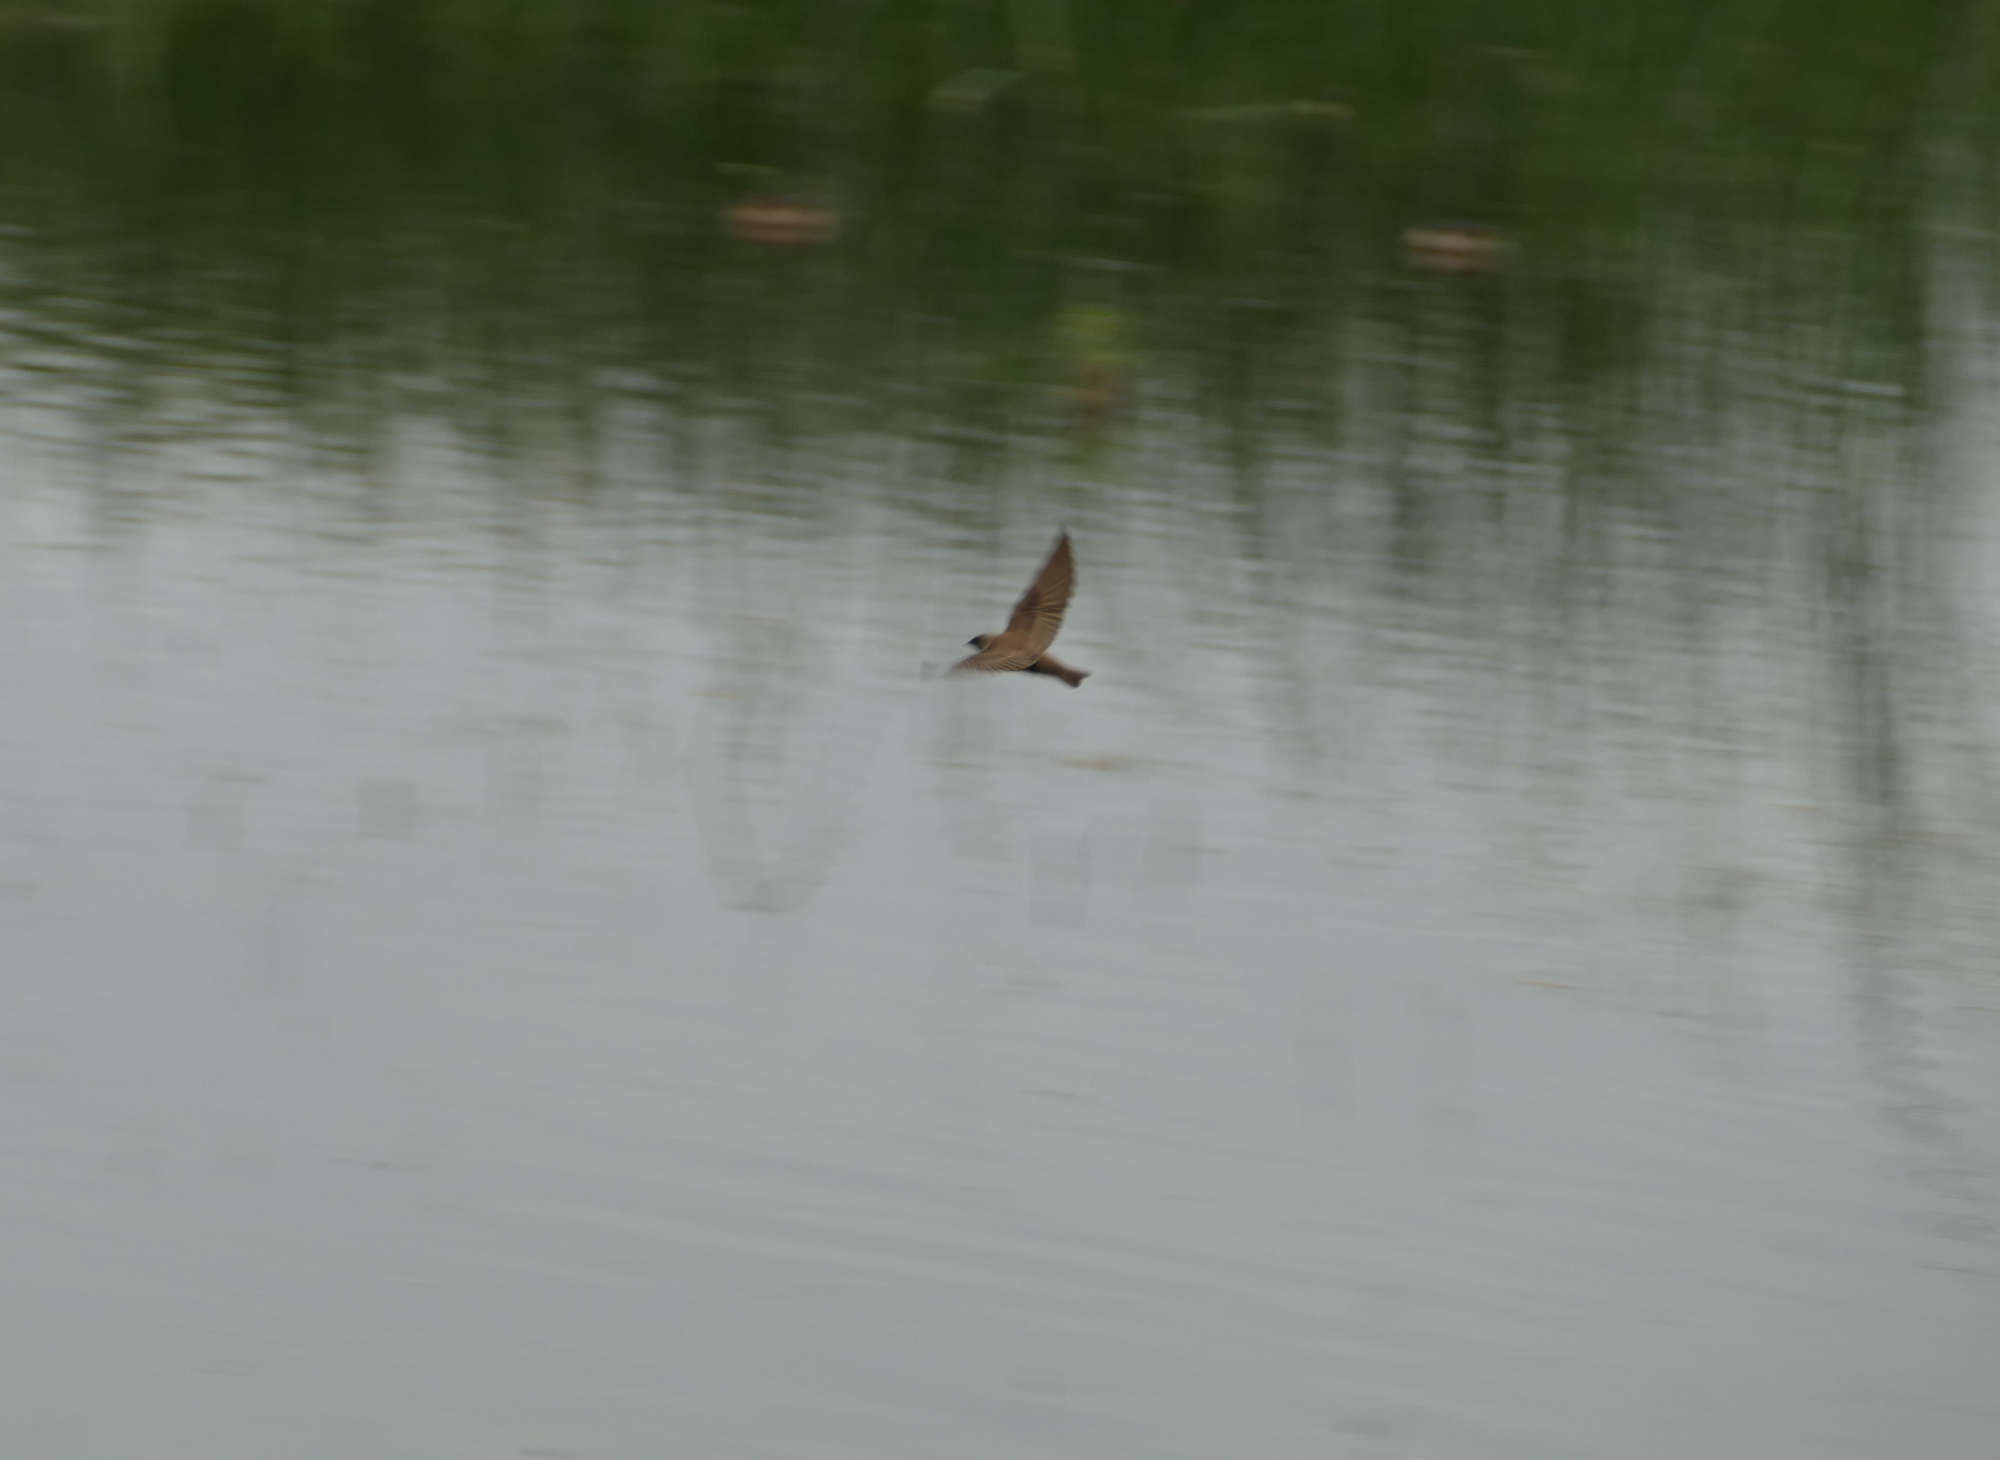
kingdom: Animalia
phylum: Chordata
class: Aves
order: Passeriformes
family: Hirundinidae
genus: Stelgidopteryx
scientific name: Stelgidopteryx serripennis
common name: Northern rough-winged swallow
